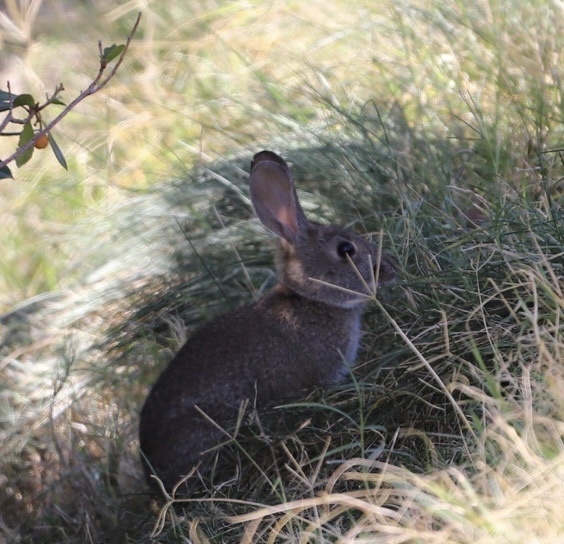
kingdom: Animalia
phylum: Chordata
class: Mammalia
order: Lagomorpha
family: Leporidae
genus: Sylvilagus
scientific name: Sylvilagus bachmani
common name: Brush rabbit
